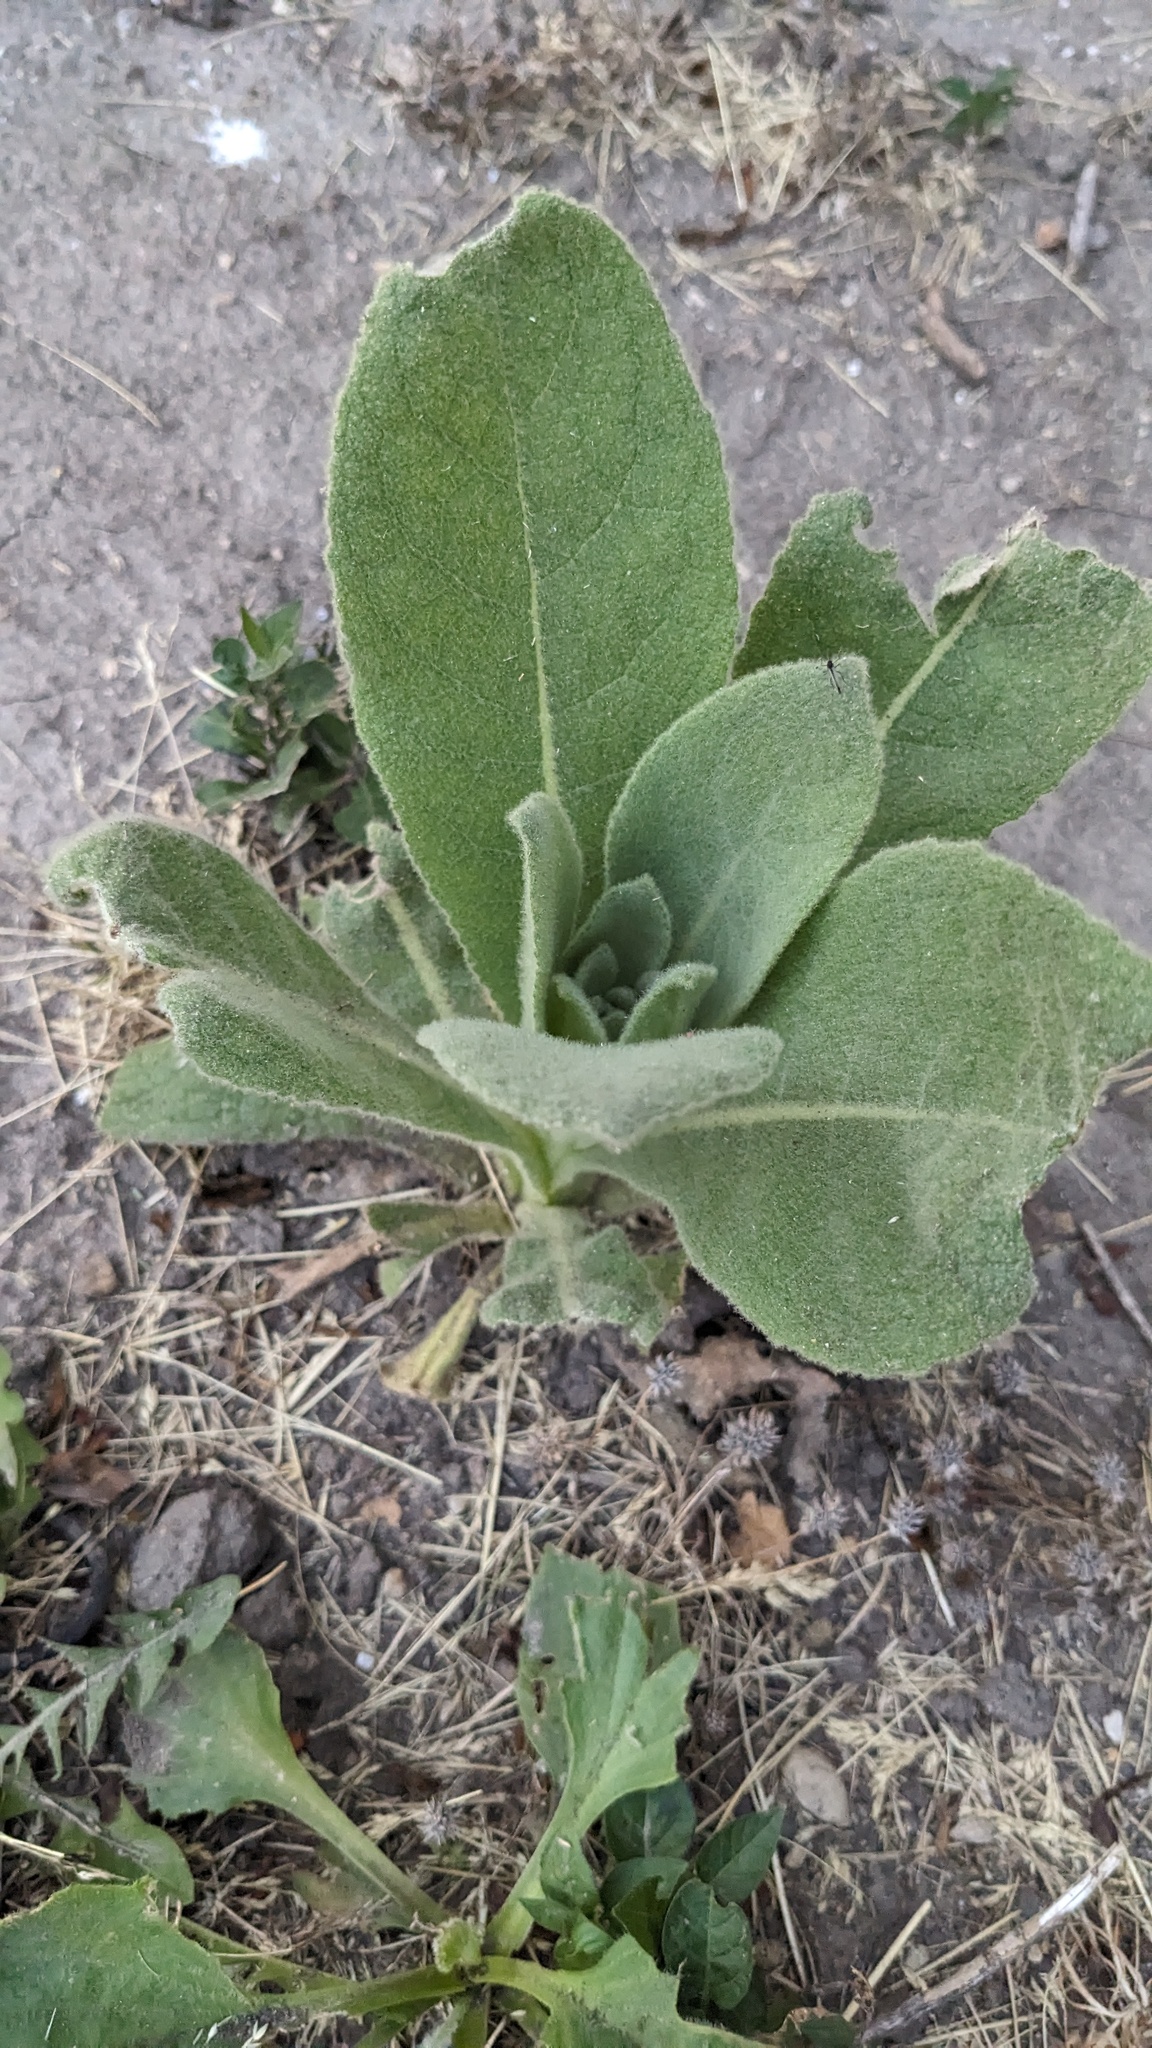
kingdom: Plantae
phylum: Tracheophyta
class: Magnoliopsida
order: Lamiales
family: Scrophulariaceae
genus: Verbascum
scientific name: Verbascum thapsus
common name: Common mullein
